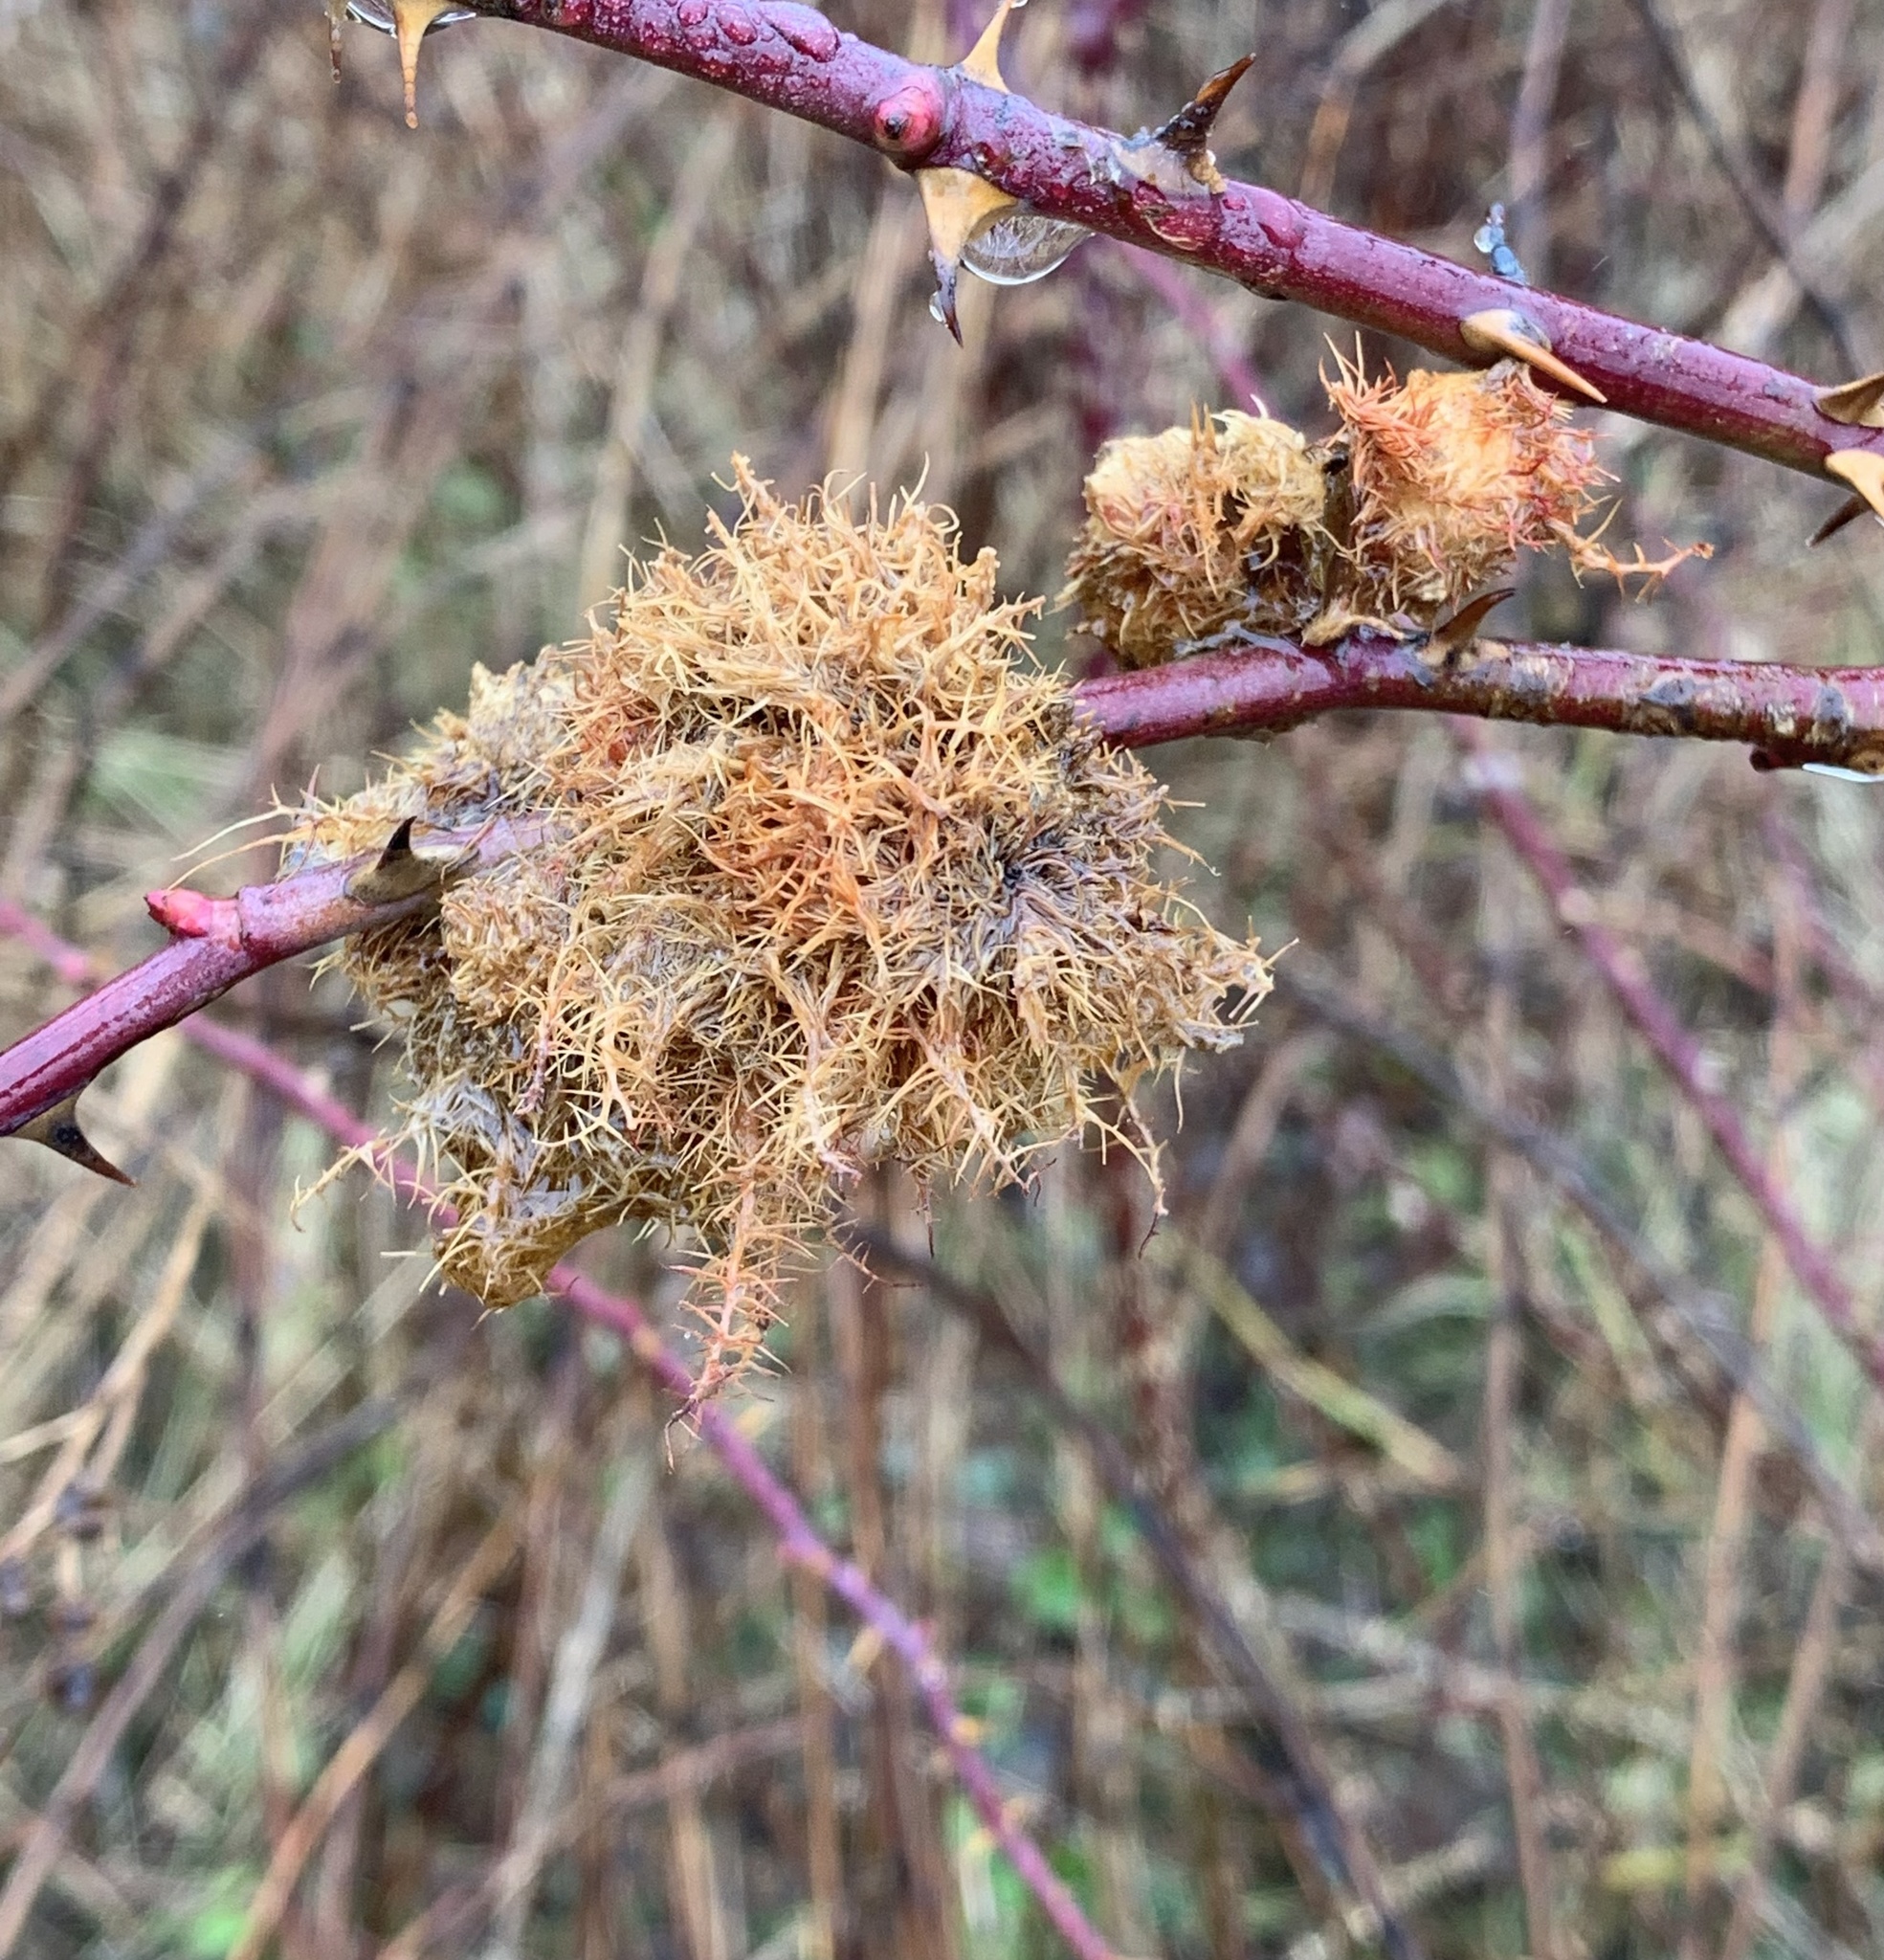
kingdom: Animalia
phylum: Arthropoda
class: Insecta
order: Hymenoptera
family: Cynipidae
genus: Diplolepis
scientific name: Diplolepis rosae
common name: Bedeguar gall
